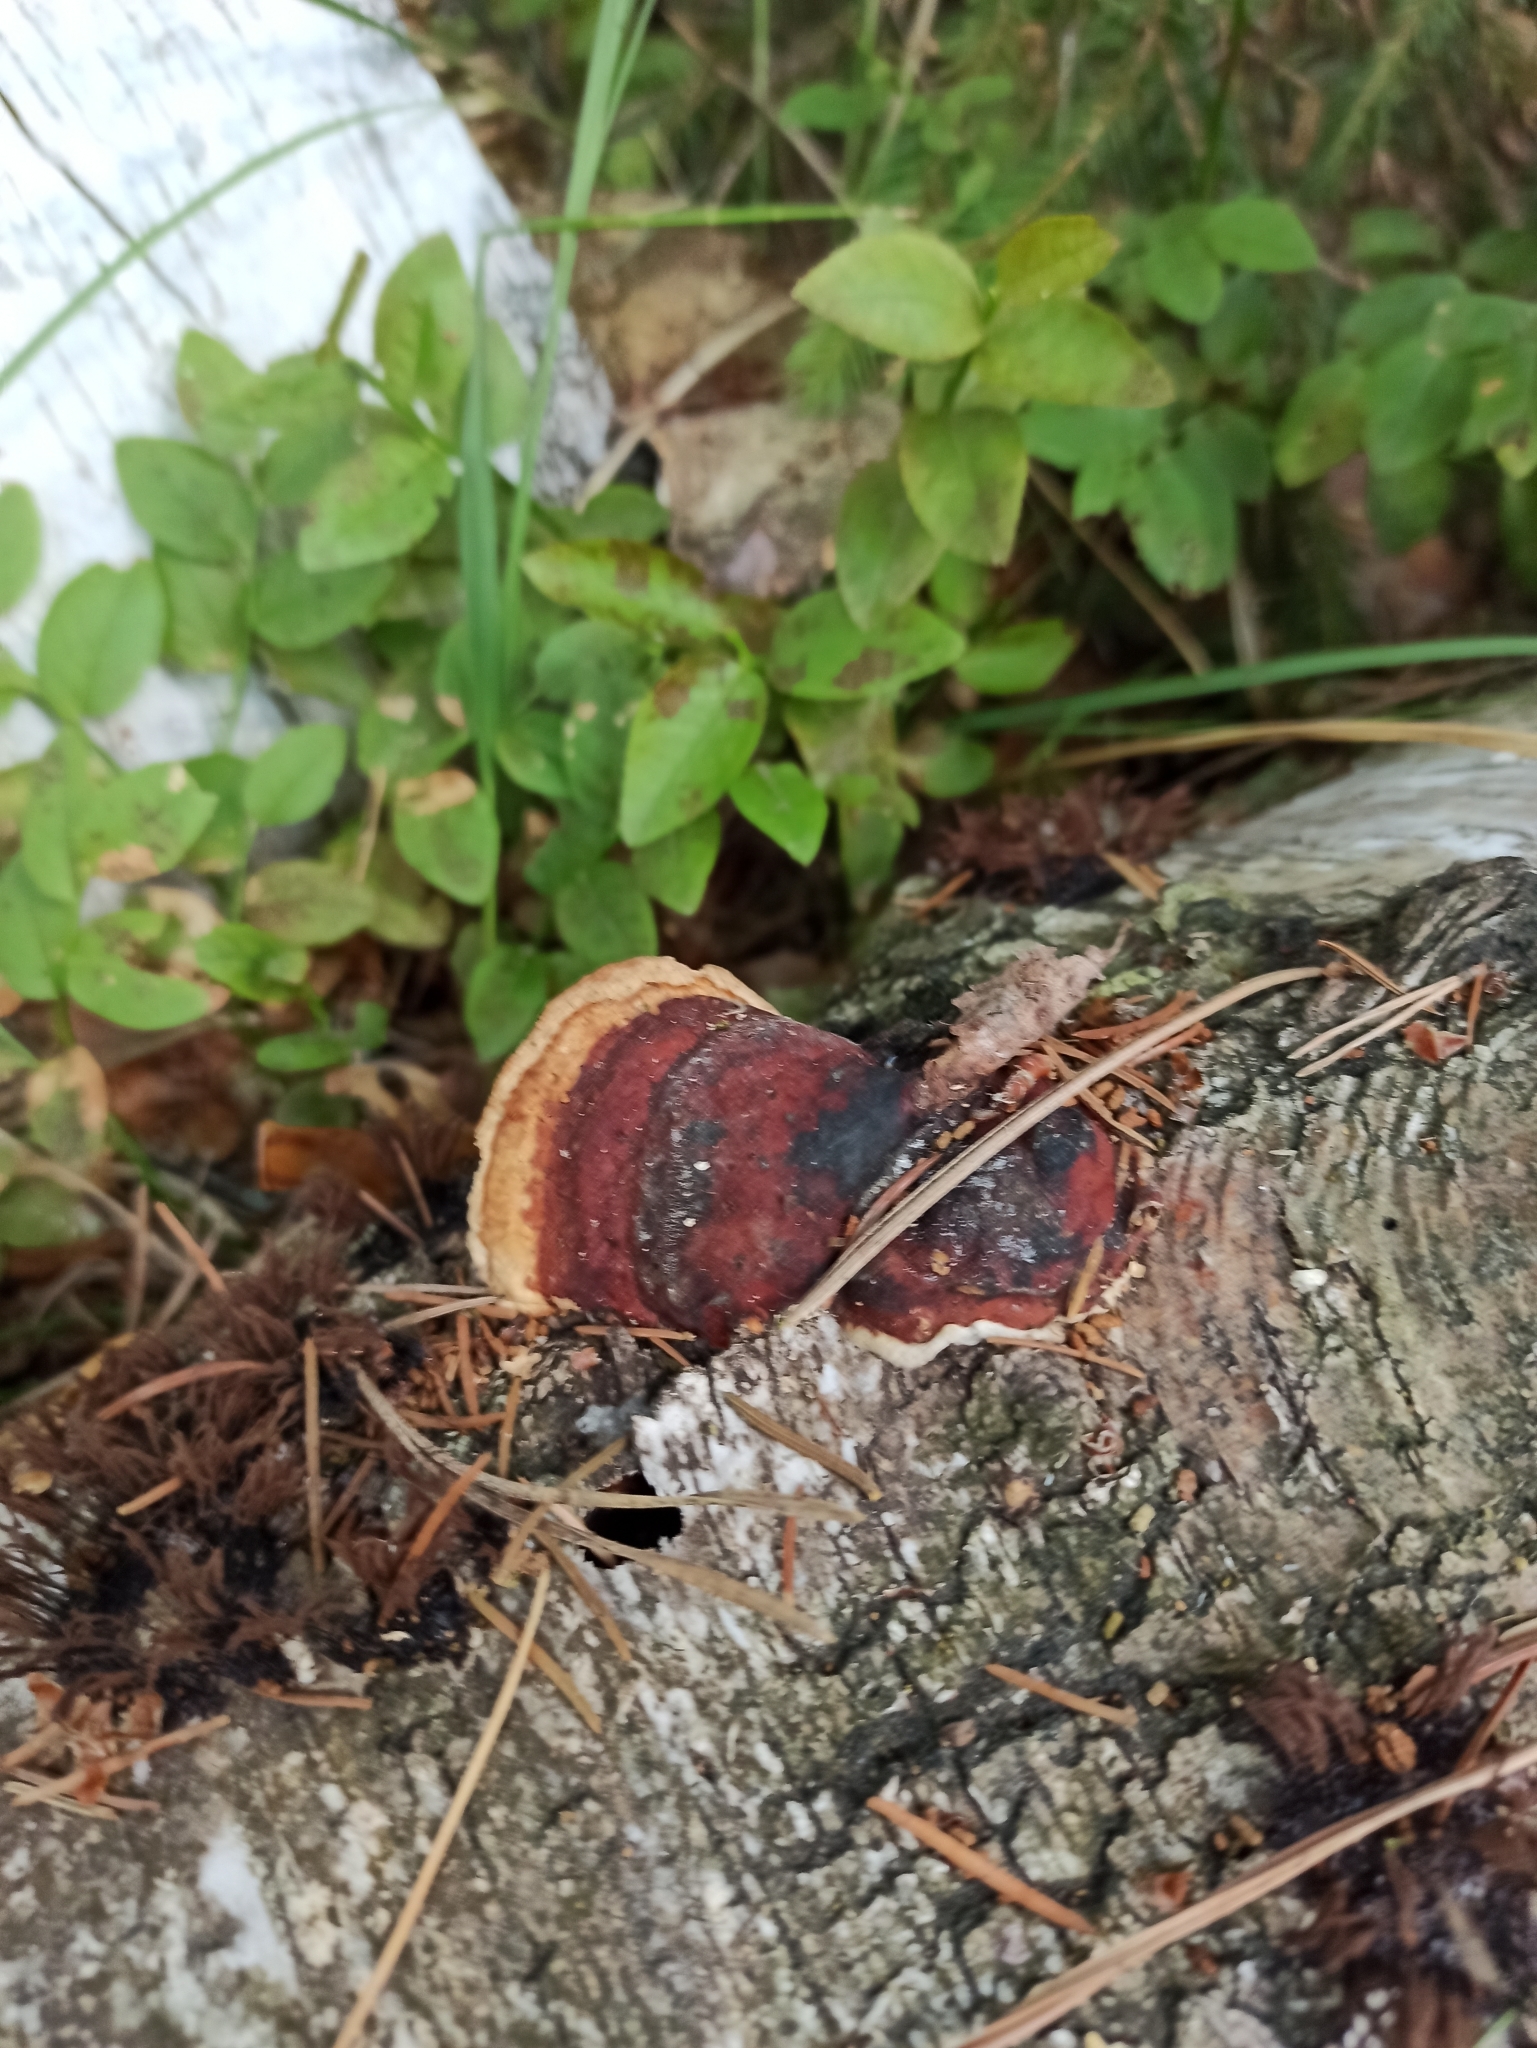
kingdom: Fungi
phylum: Basidiomycota
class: Agaricomycetes
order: Polyporales
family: Fomitopsidaceae
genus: Fomitopsis
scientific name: Fomitopsis pinicola
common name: Red-belted bracket
